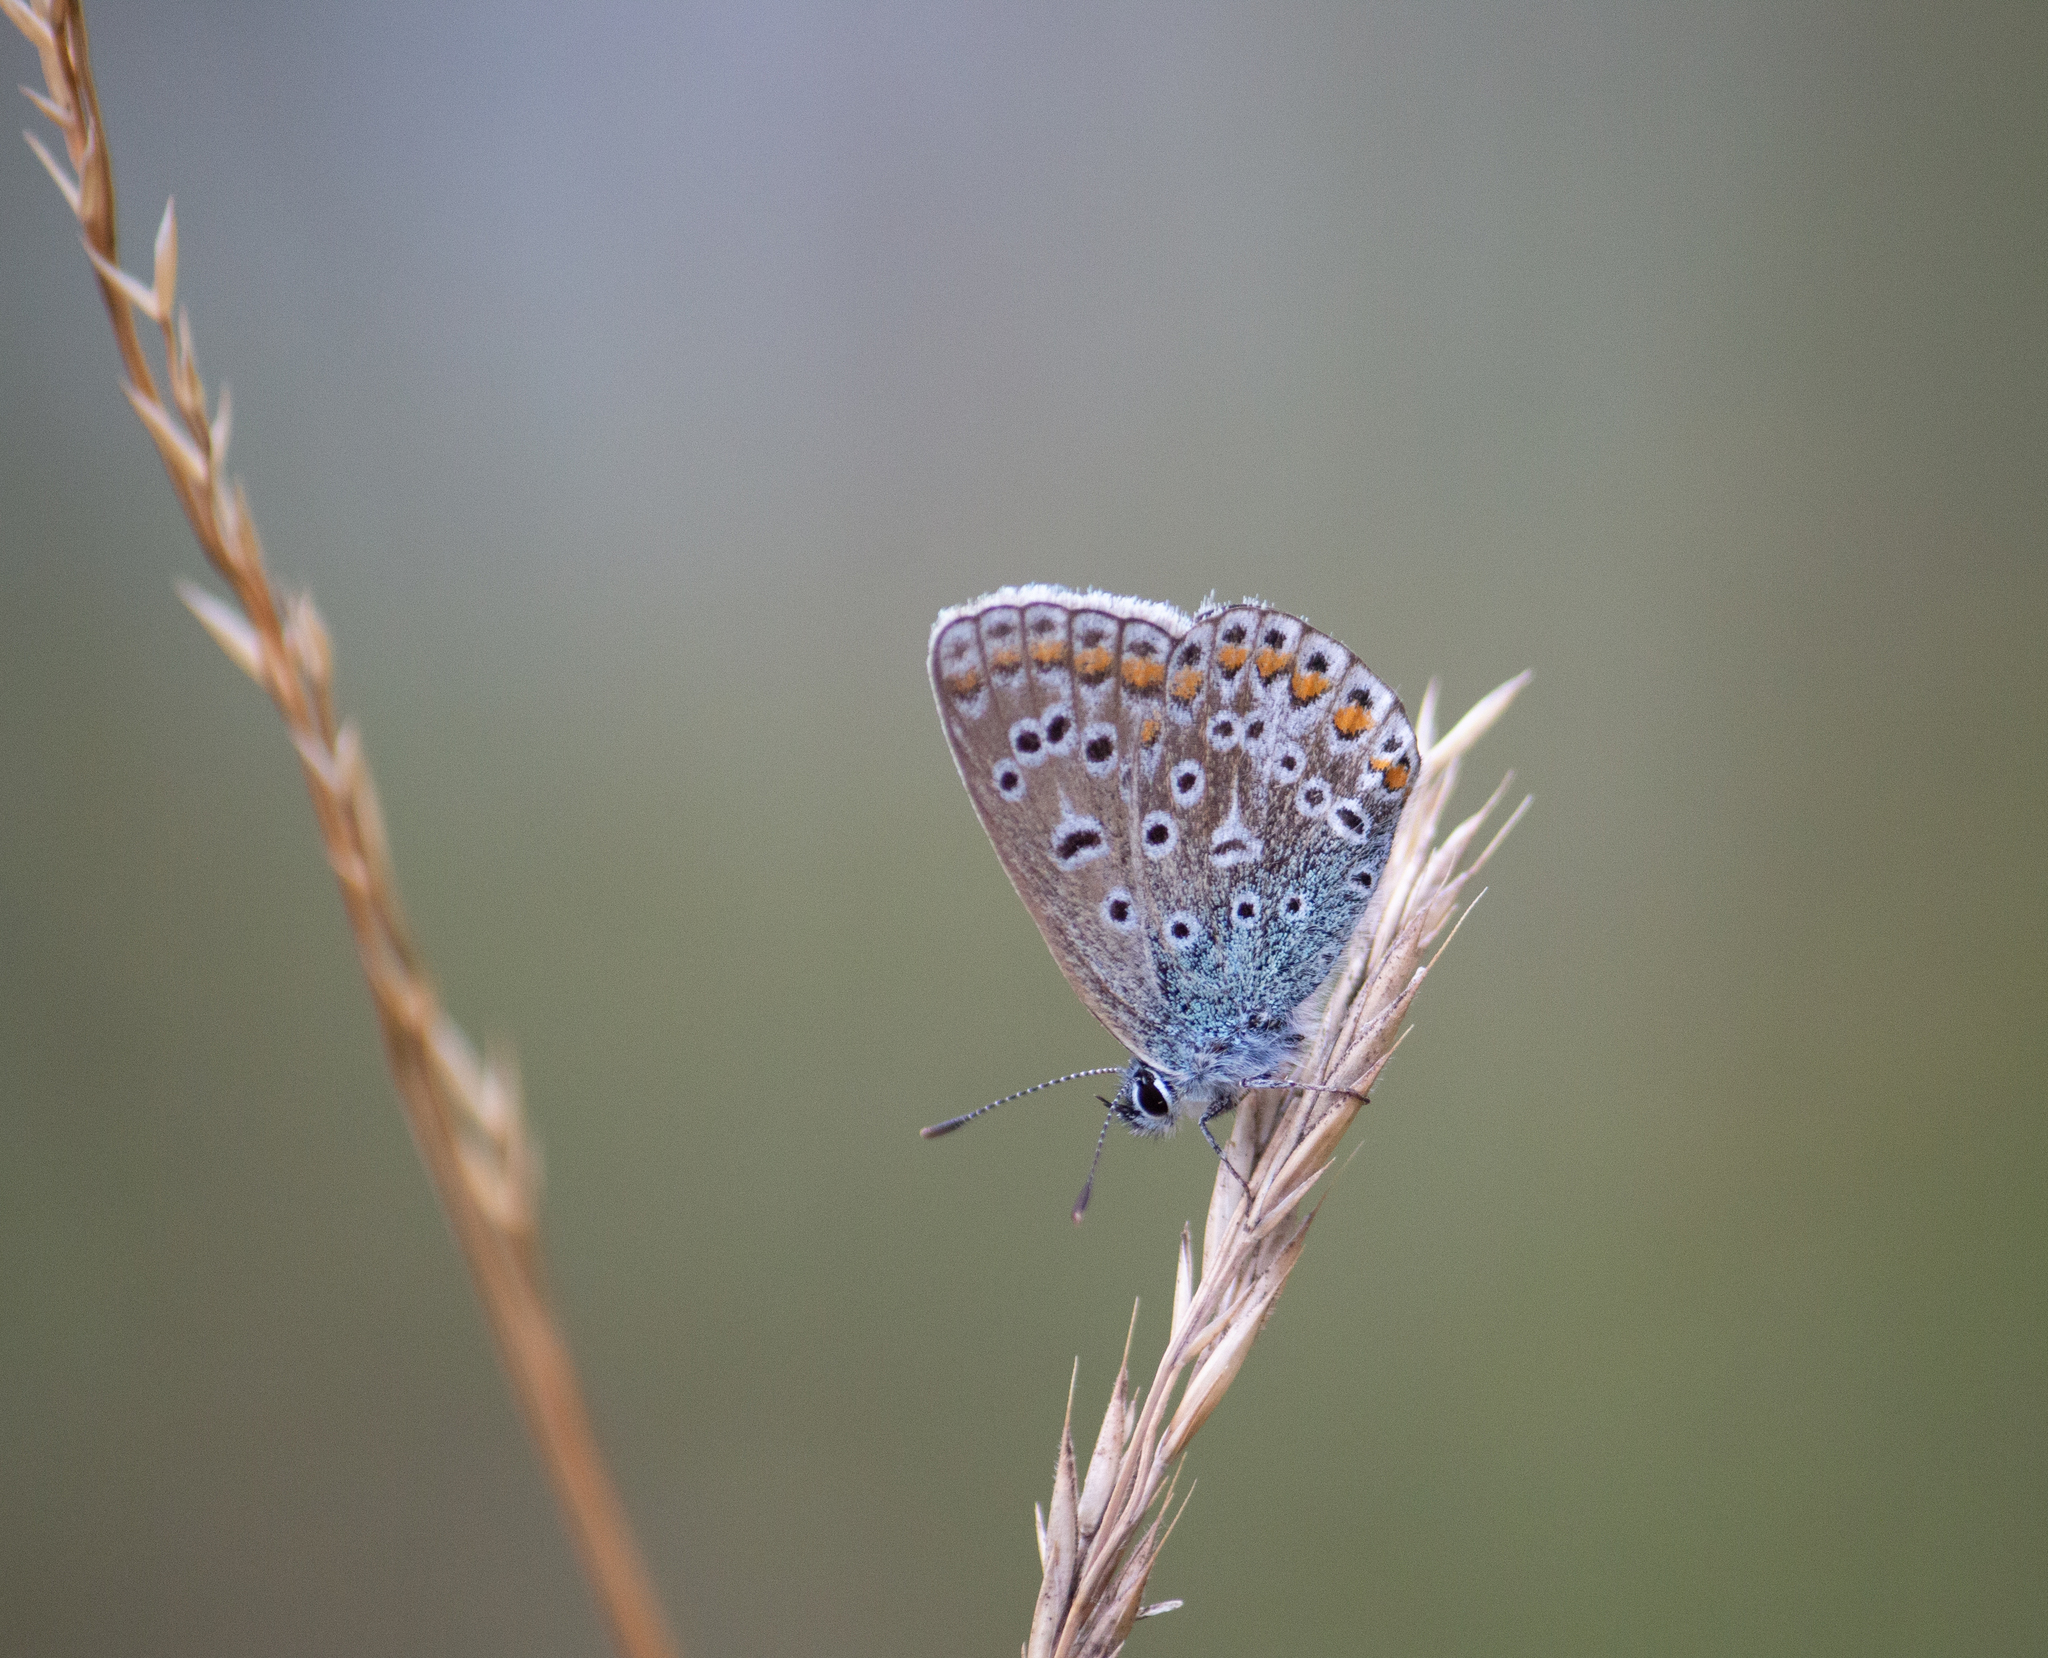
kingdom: Animalia
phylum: Arthropoda
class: Insecta
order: Lepidoptera
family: Lycaenidae
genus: Polyommatus
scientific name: Polyommatus icarus
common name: Common blue
